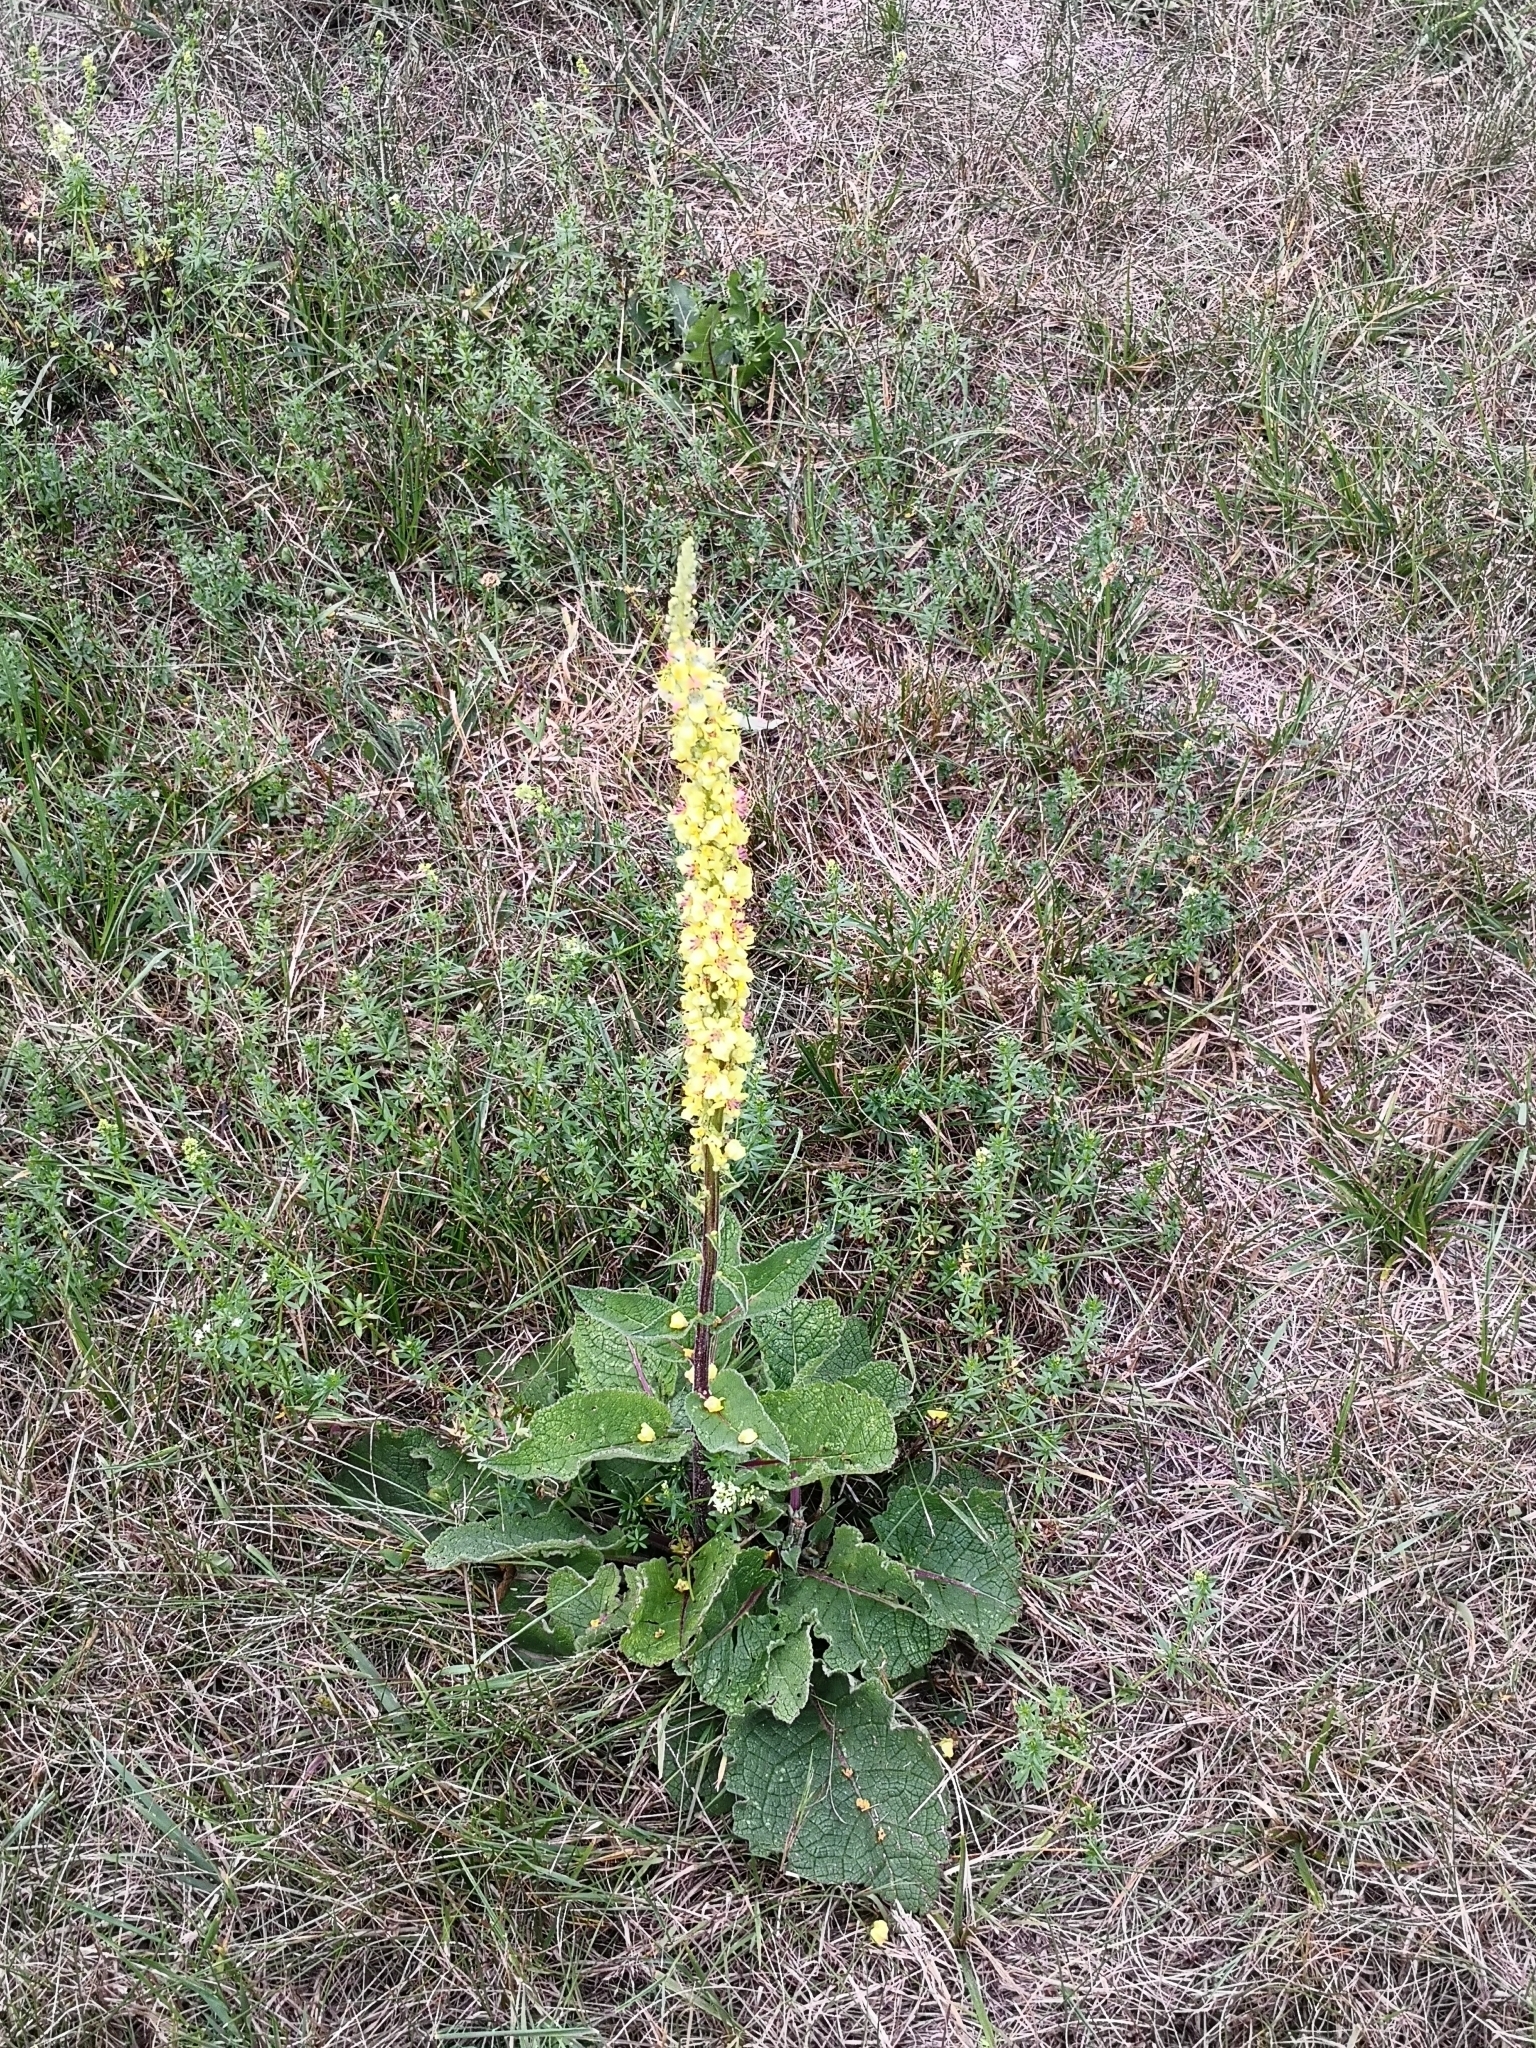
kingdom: Plantae
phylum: Tracheophyta
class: Magnoliopsida
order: Lamiales
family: Scrophulariaceae
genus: Verbascum
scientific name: Verbascum nigrum
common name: Dark mullein
